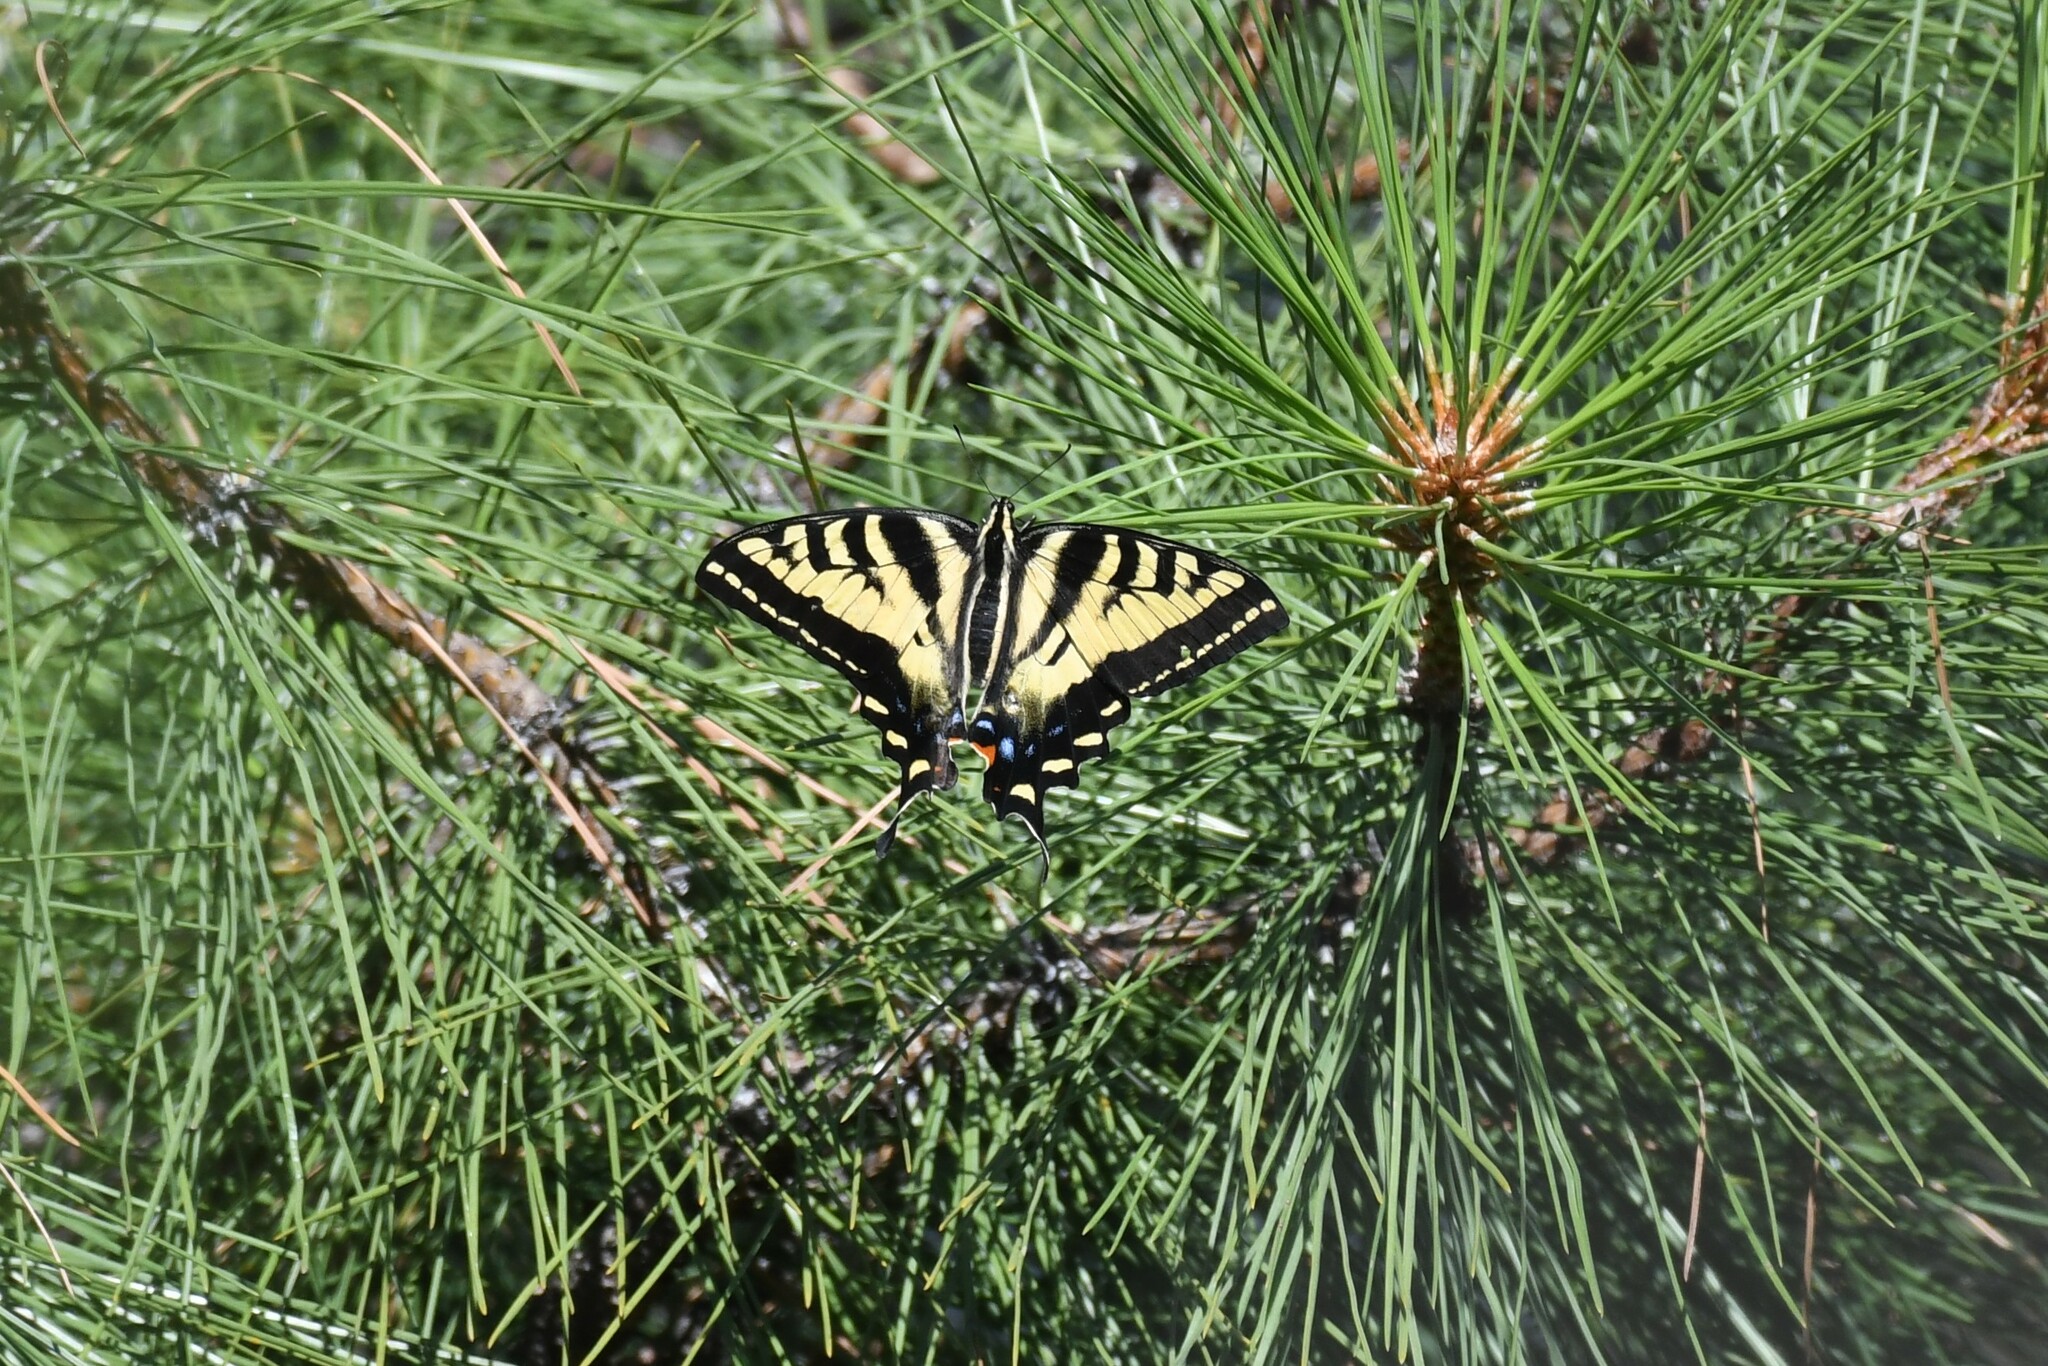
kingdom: Animalia
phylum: Arthropoda
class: Insecta
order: Lepidoptera
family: Papilionidae
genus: Papilio
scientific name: Papilio rutulus
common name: Western tiger swallowtail
